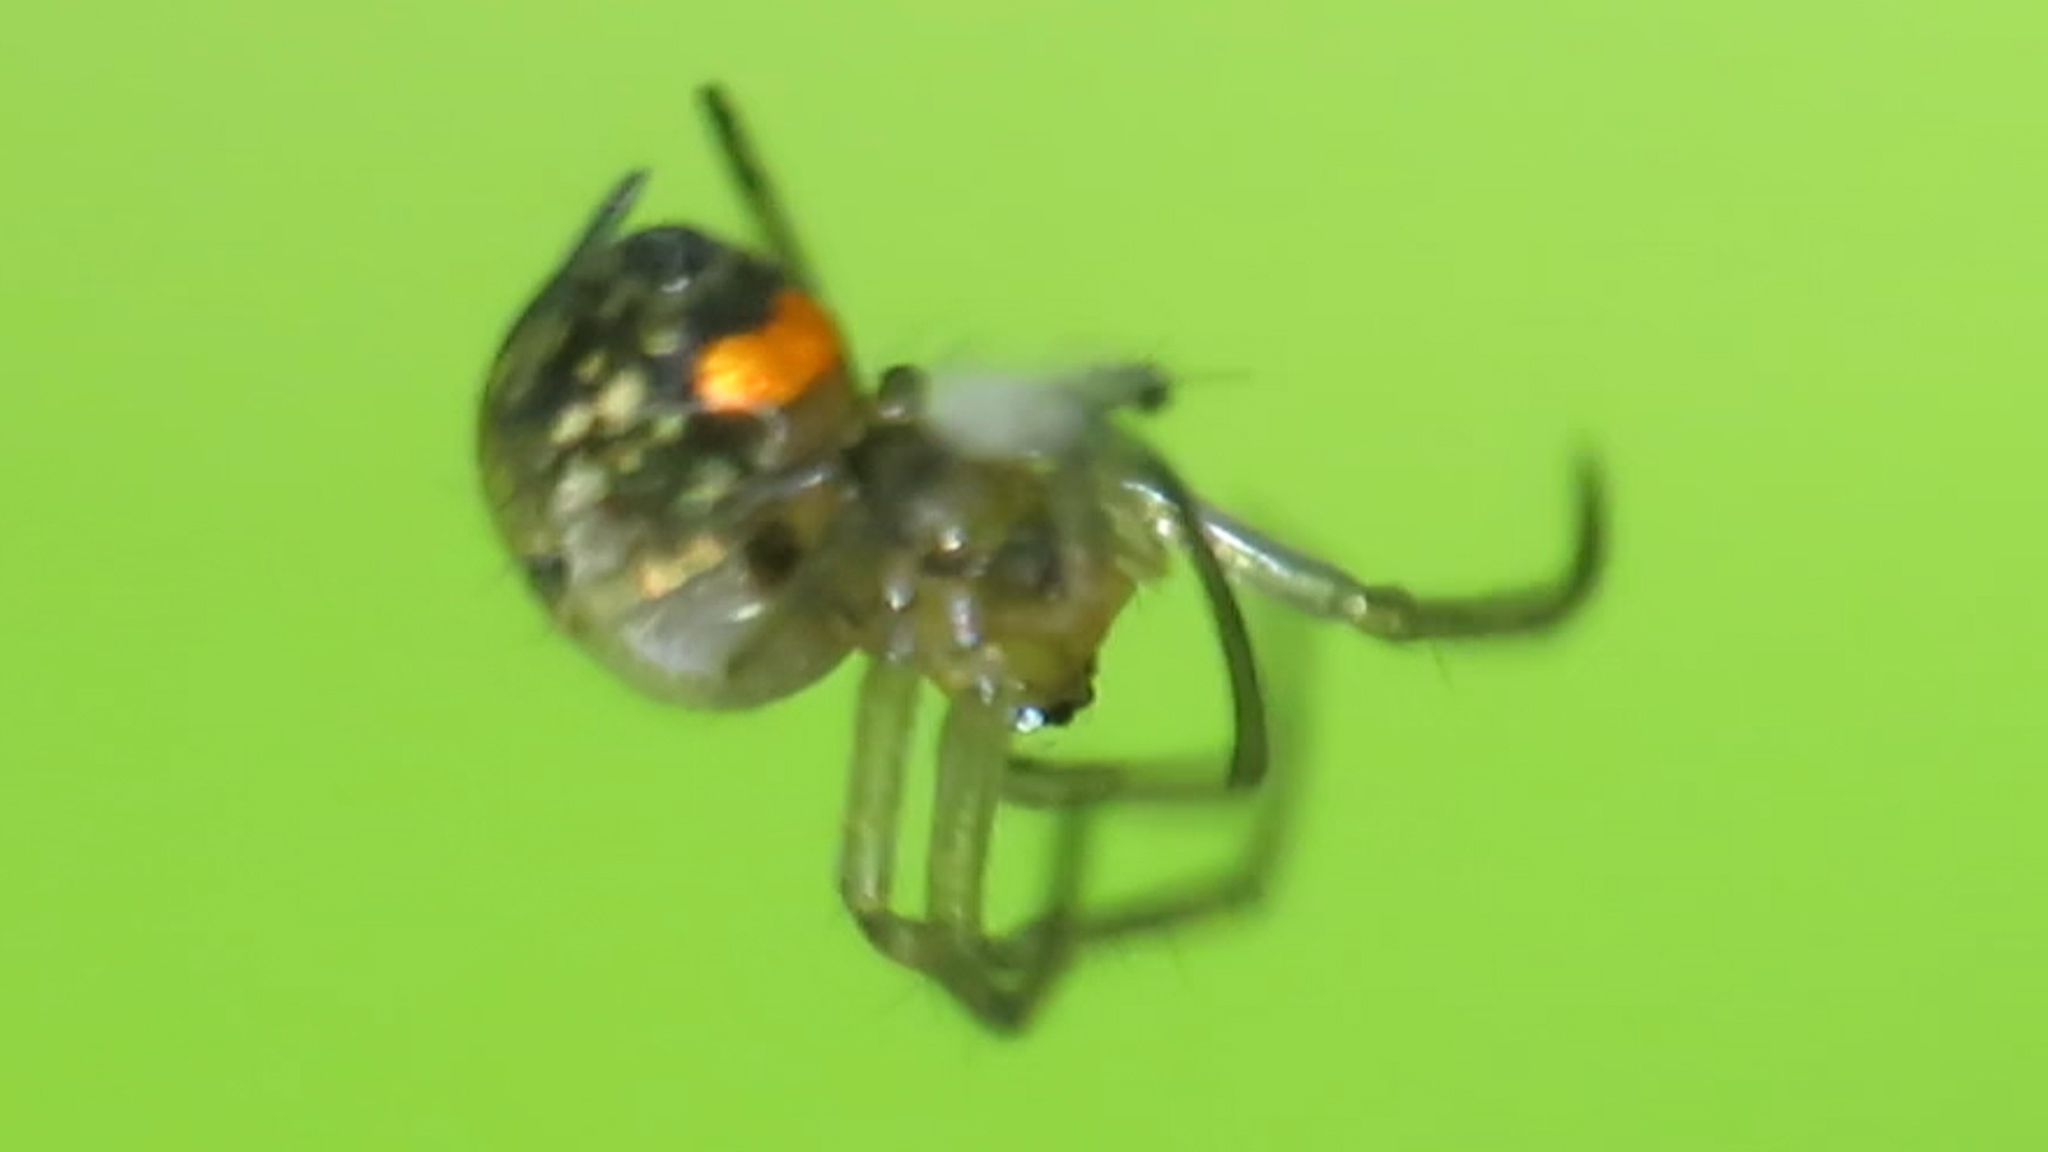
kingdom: Animalia
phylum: Arthropoda
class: Arachnida
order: Araneae
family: Tetragnathidae
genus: Leucauge
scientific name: Leucauge venusta
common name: Longjawed orb weavers
